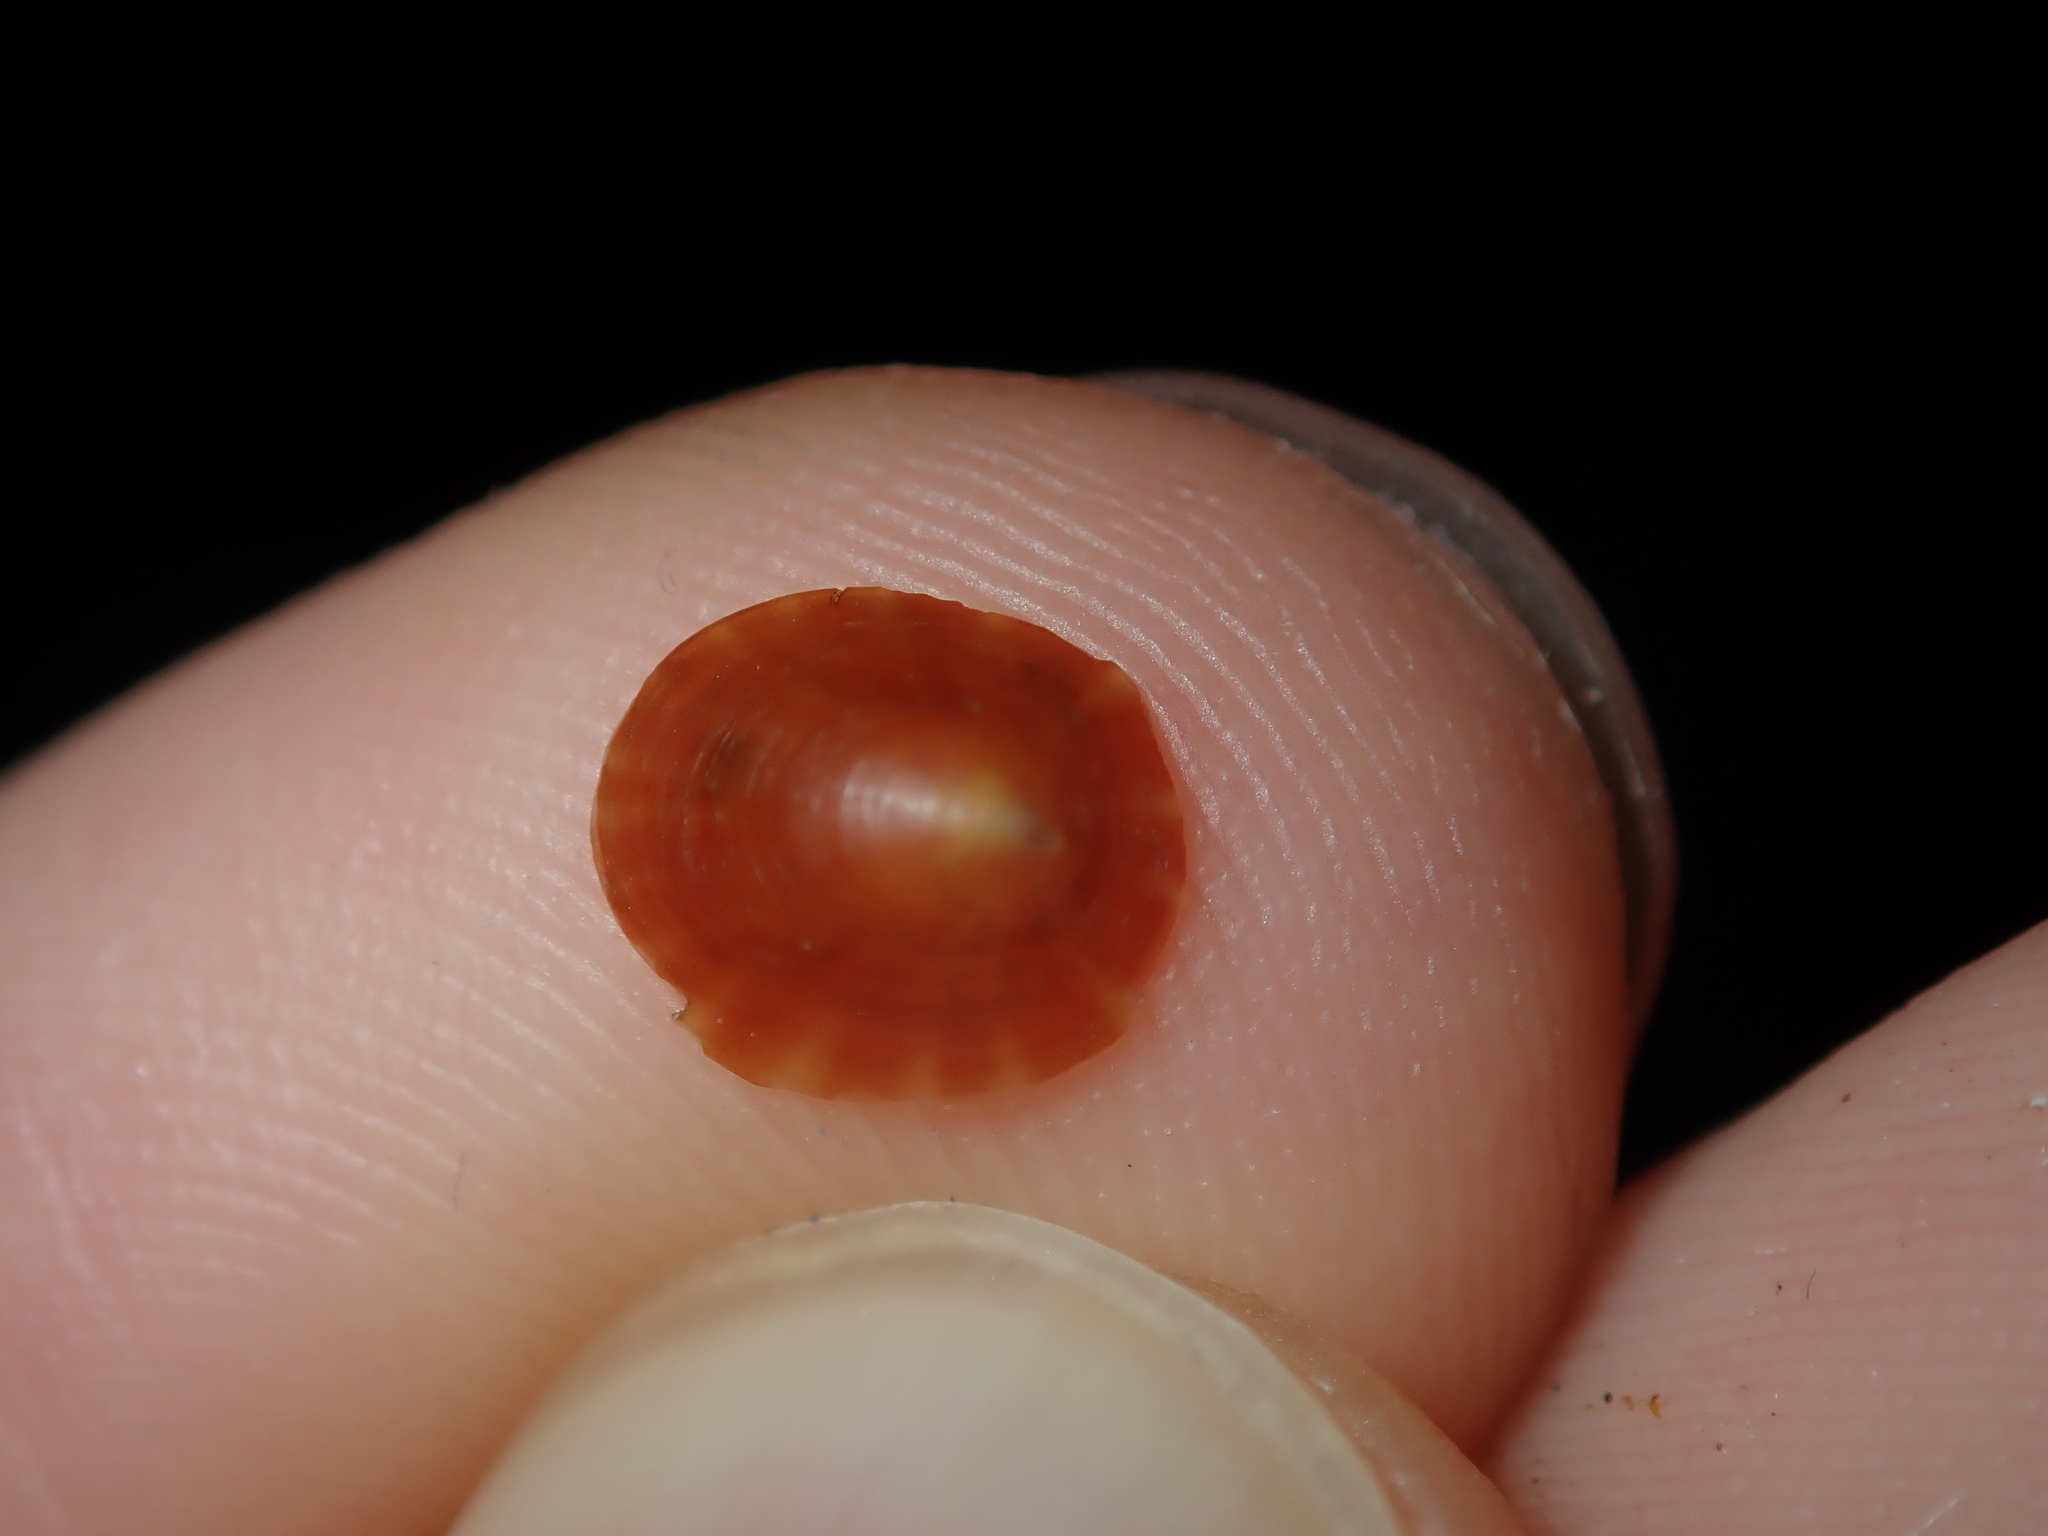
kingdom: Animalia
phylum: Mollusca
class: Gastropoda
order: Siphonariida
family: Siphonariidae
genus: Pugillaria
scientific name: Pugillaria emergens
